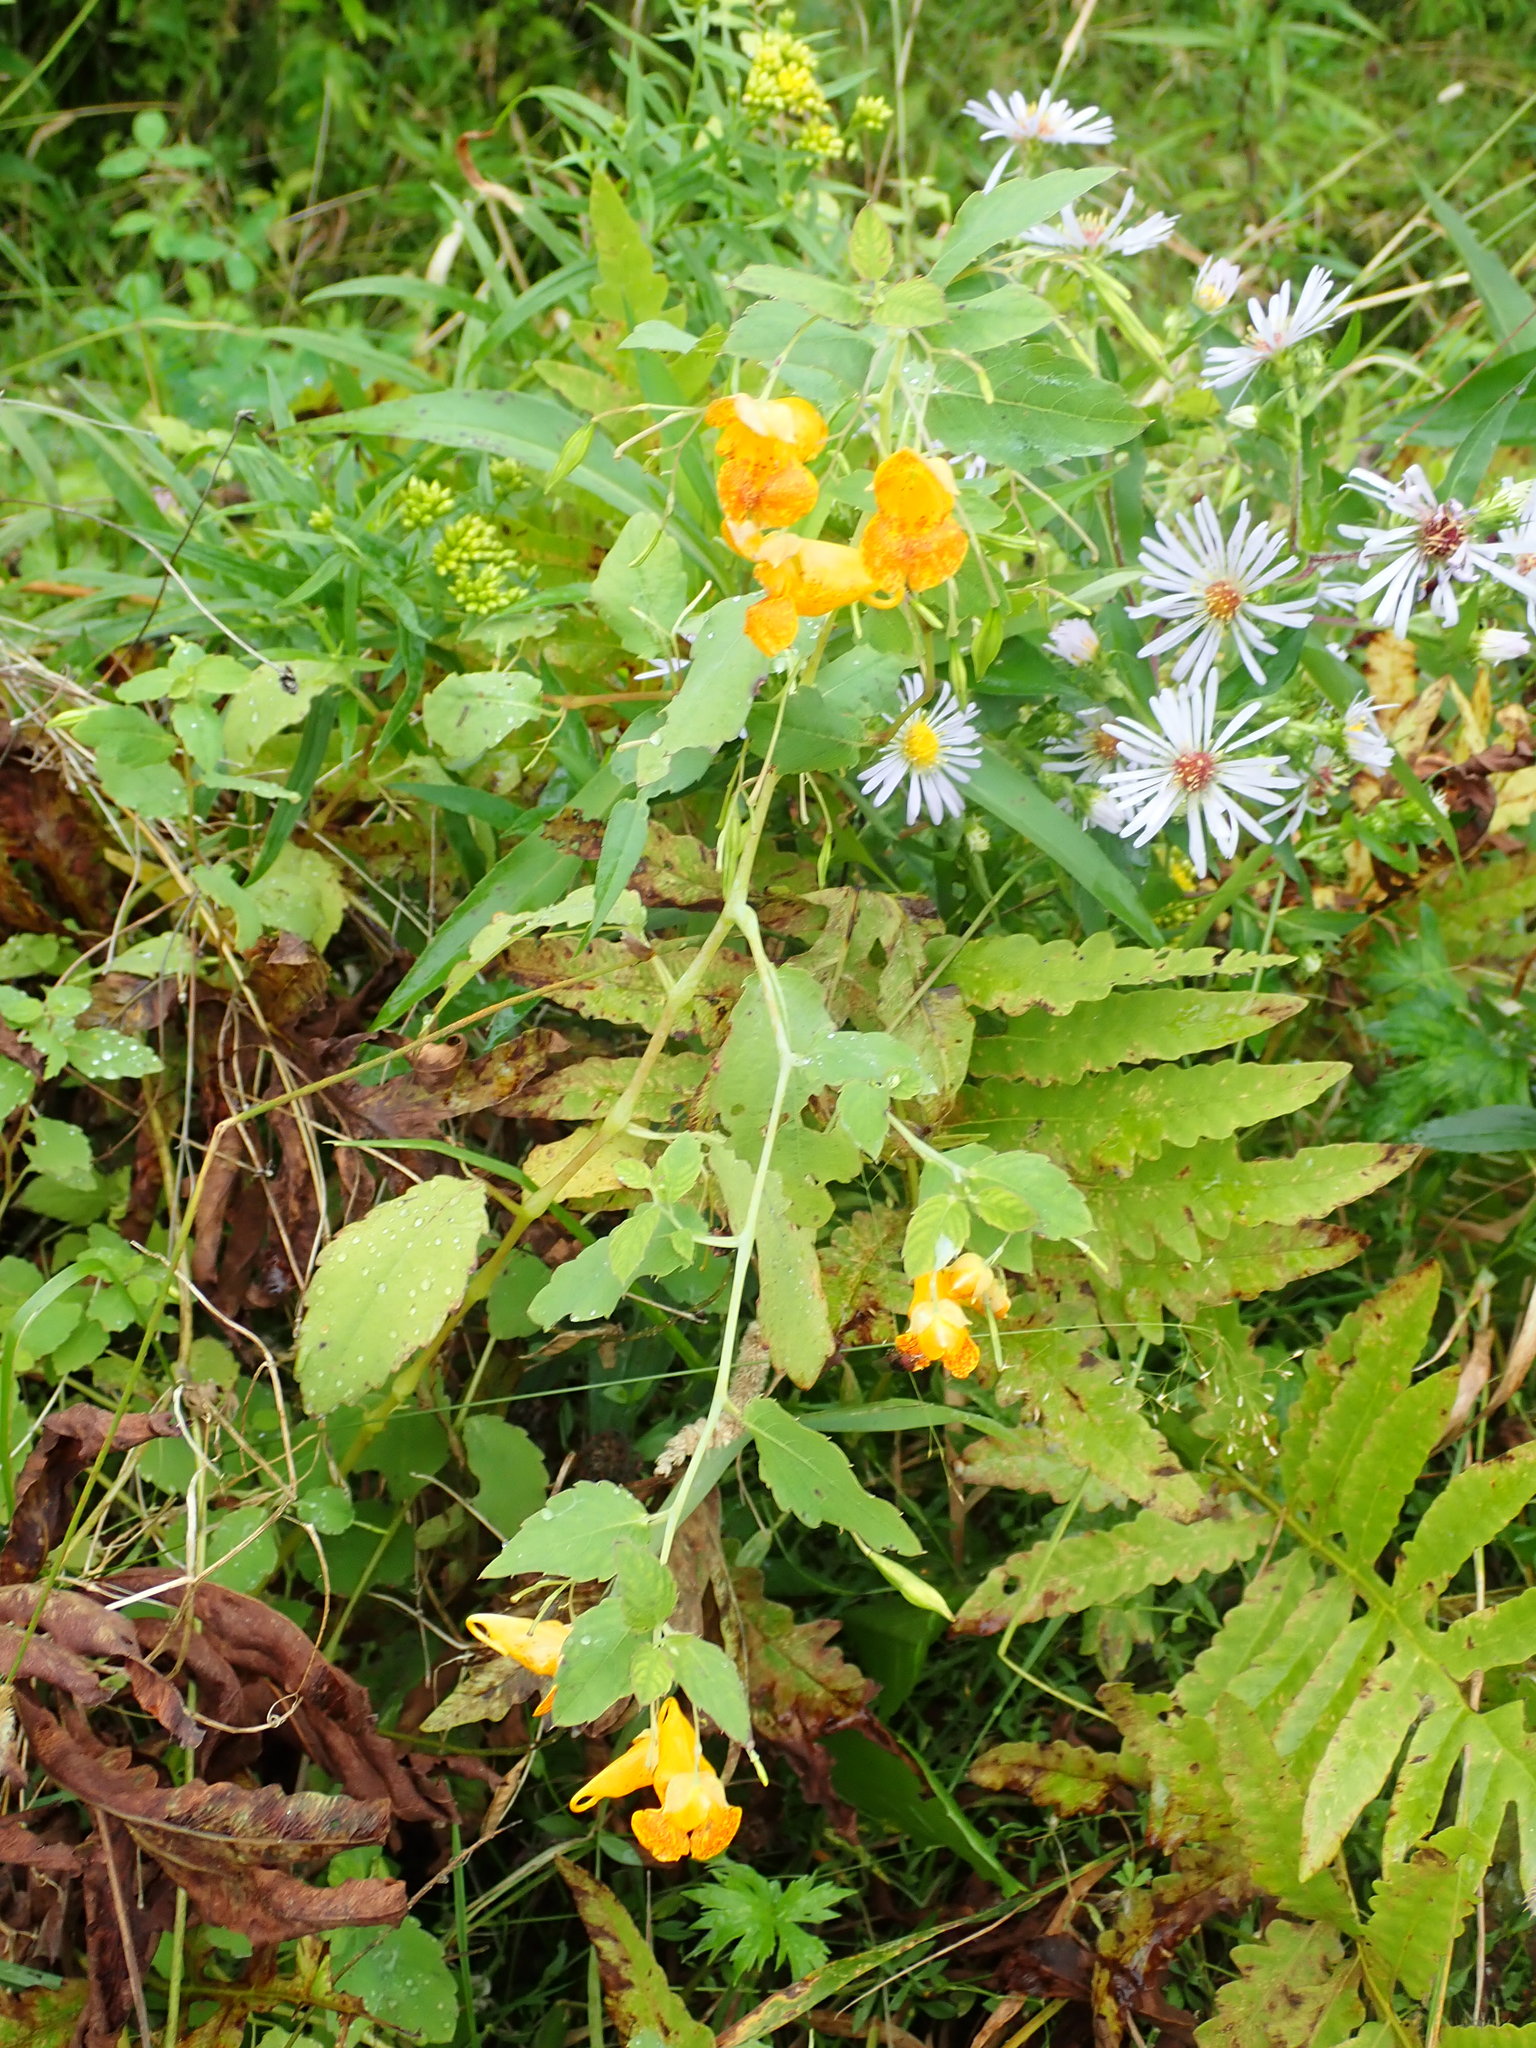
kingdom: Plantae
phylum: Tracheophyta
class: Magnoliopsida
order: Ericales
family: Balsaminaceae
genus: Impatiens
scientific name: Impatiens capensis
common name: Orange balsam
